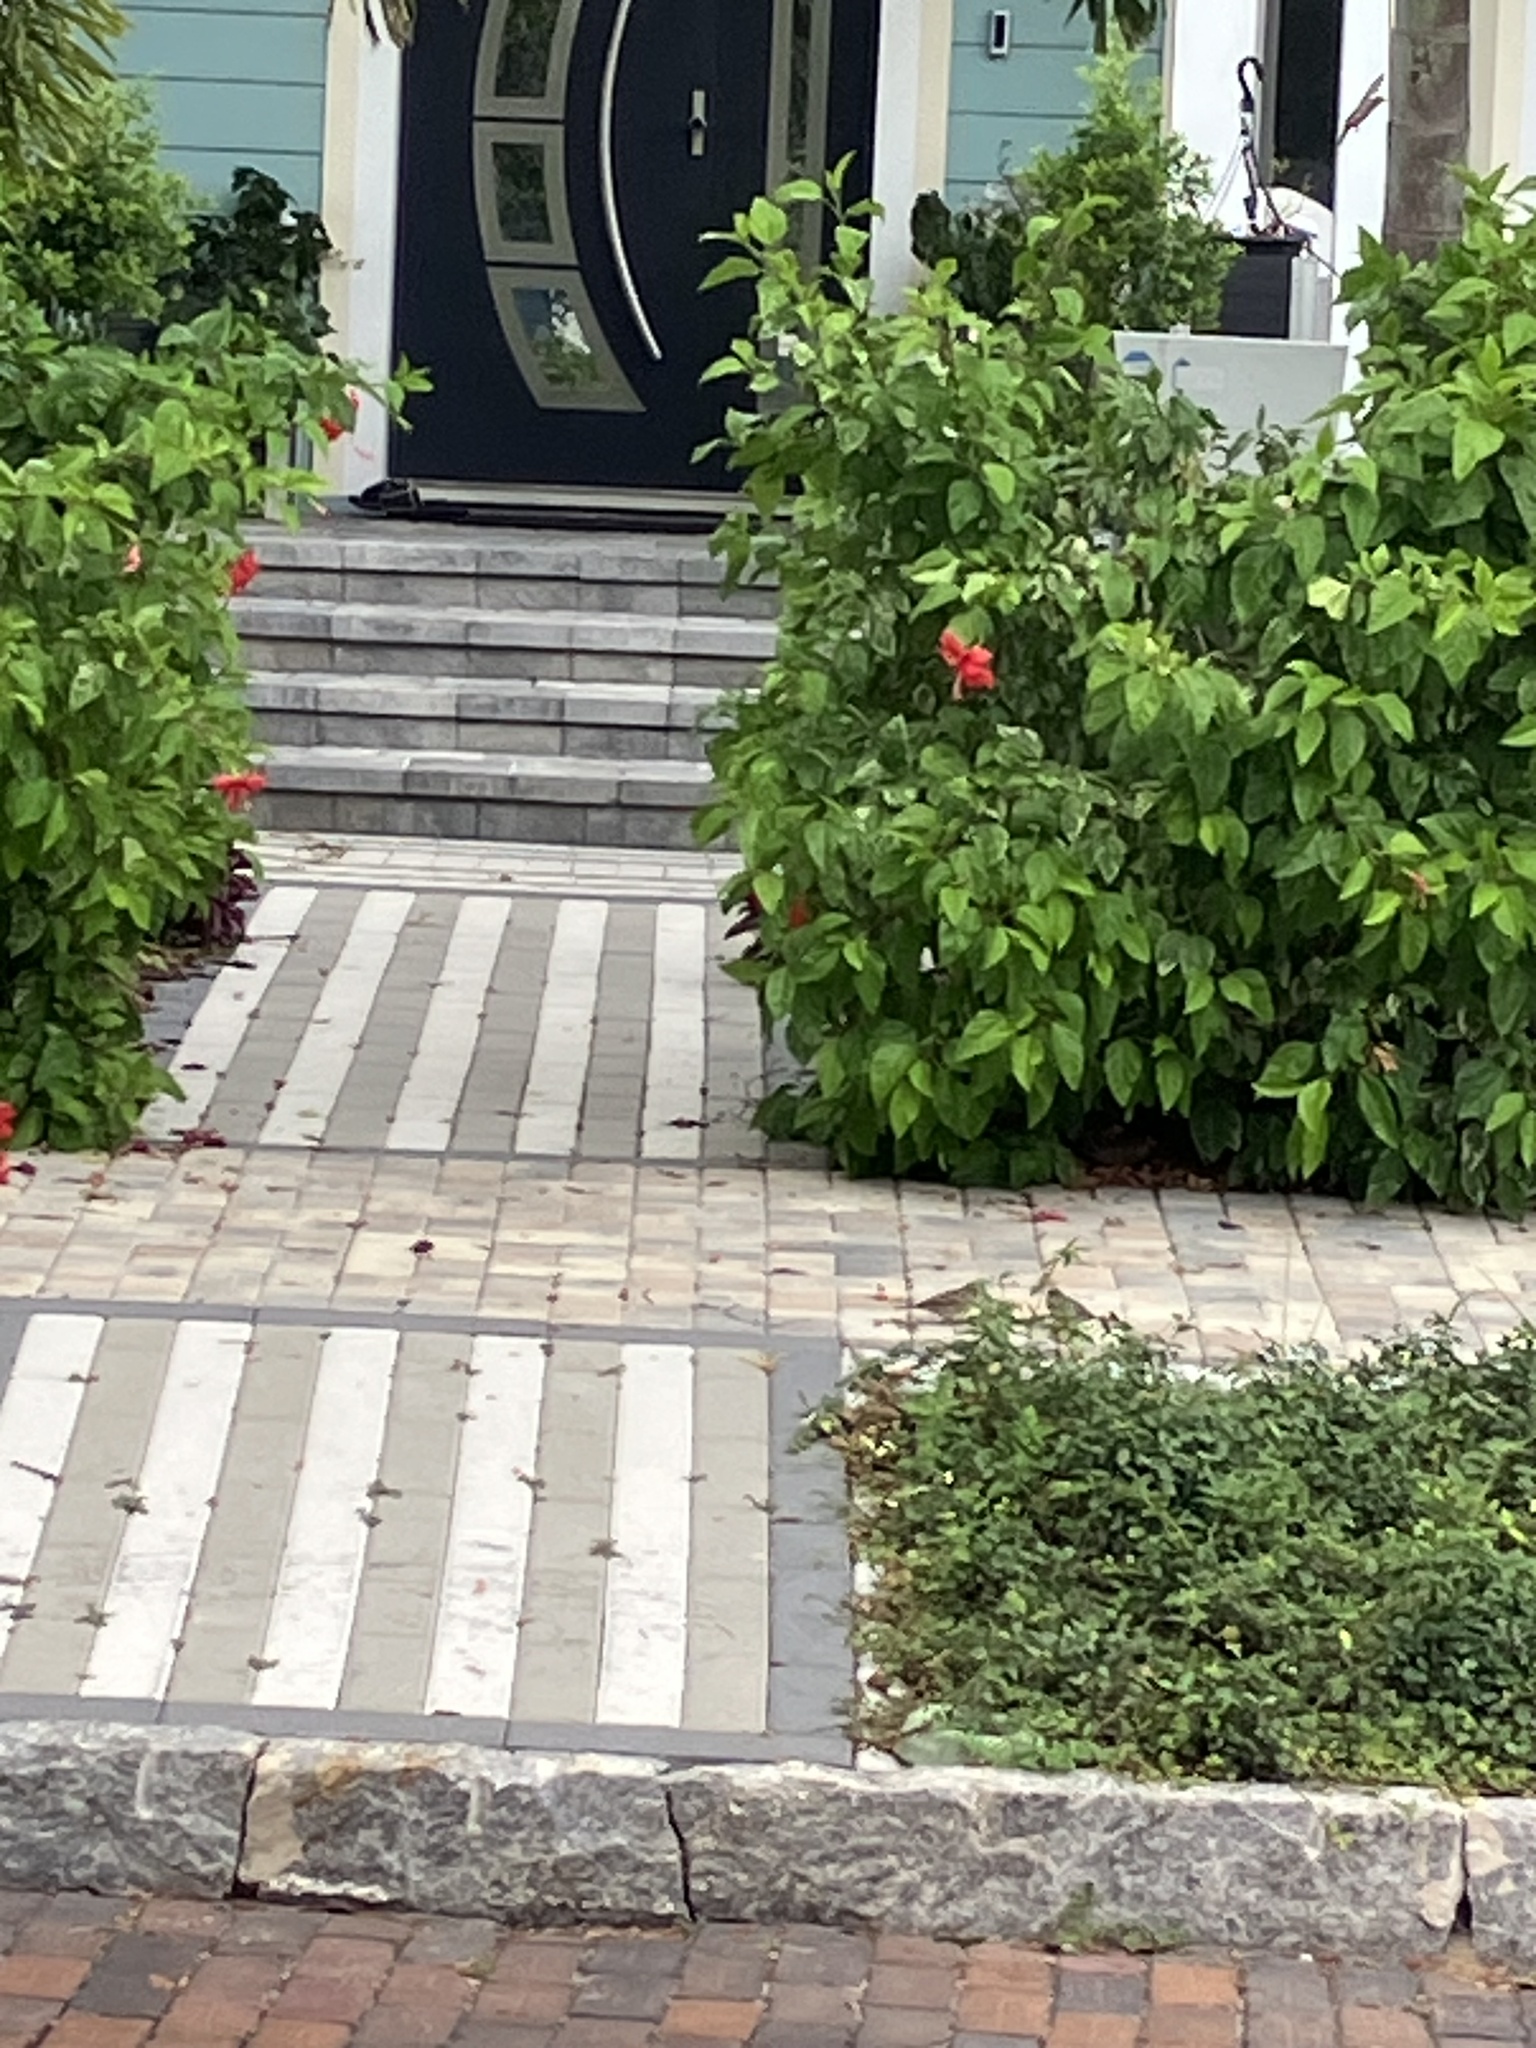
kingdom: Animalia
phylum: Chordata
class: Aves
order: Passeriformes
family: Passeridae
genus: Passer
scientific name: Passer domesticus
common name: House sparrow
